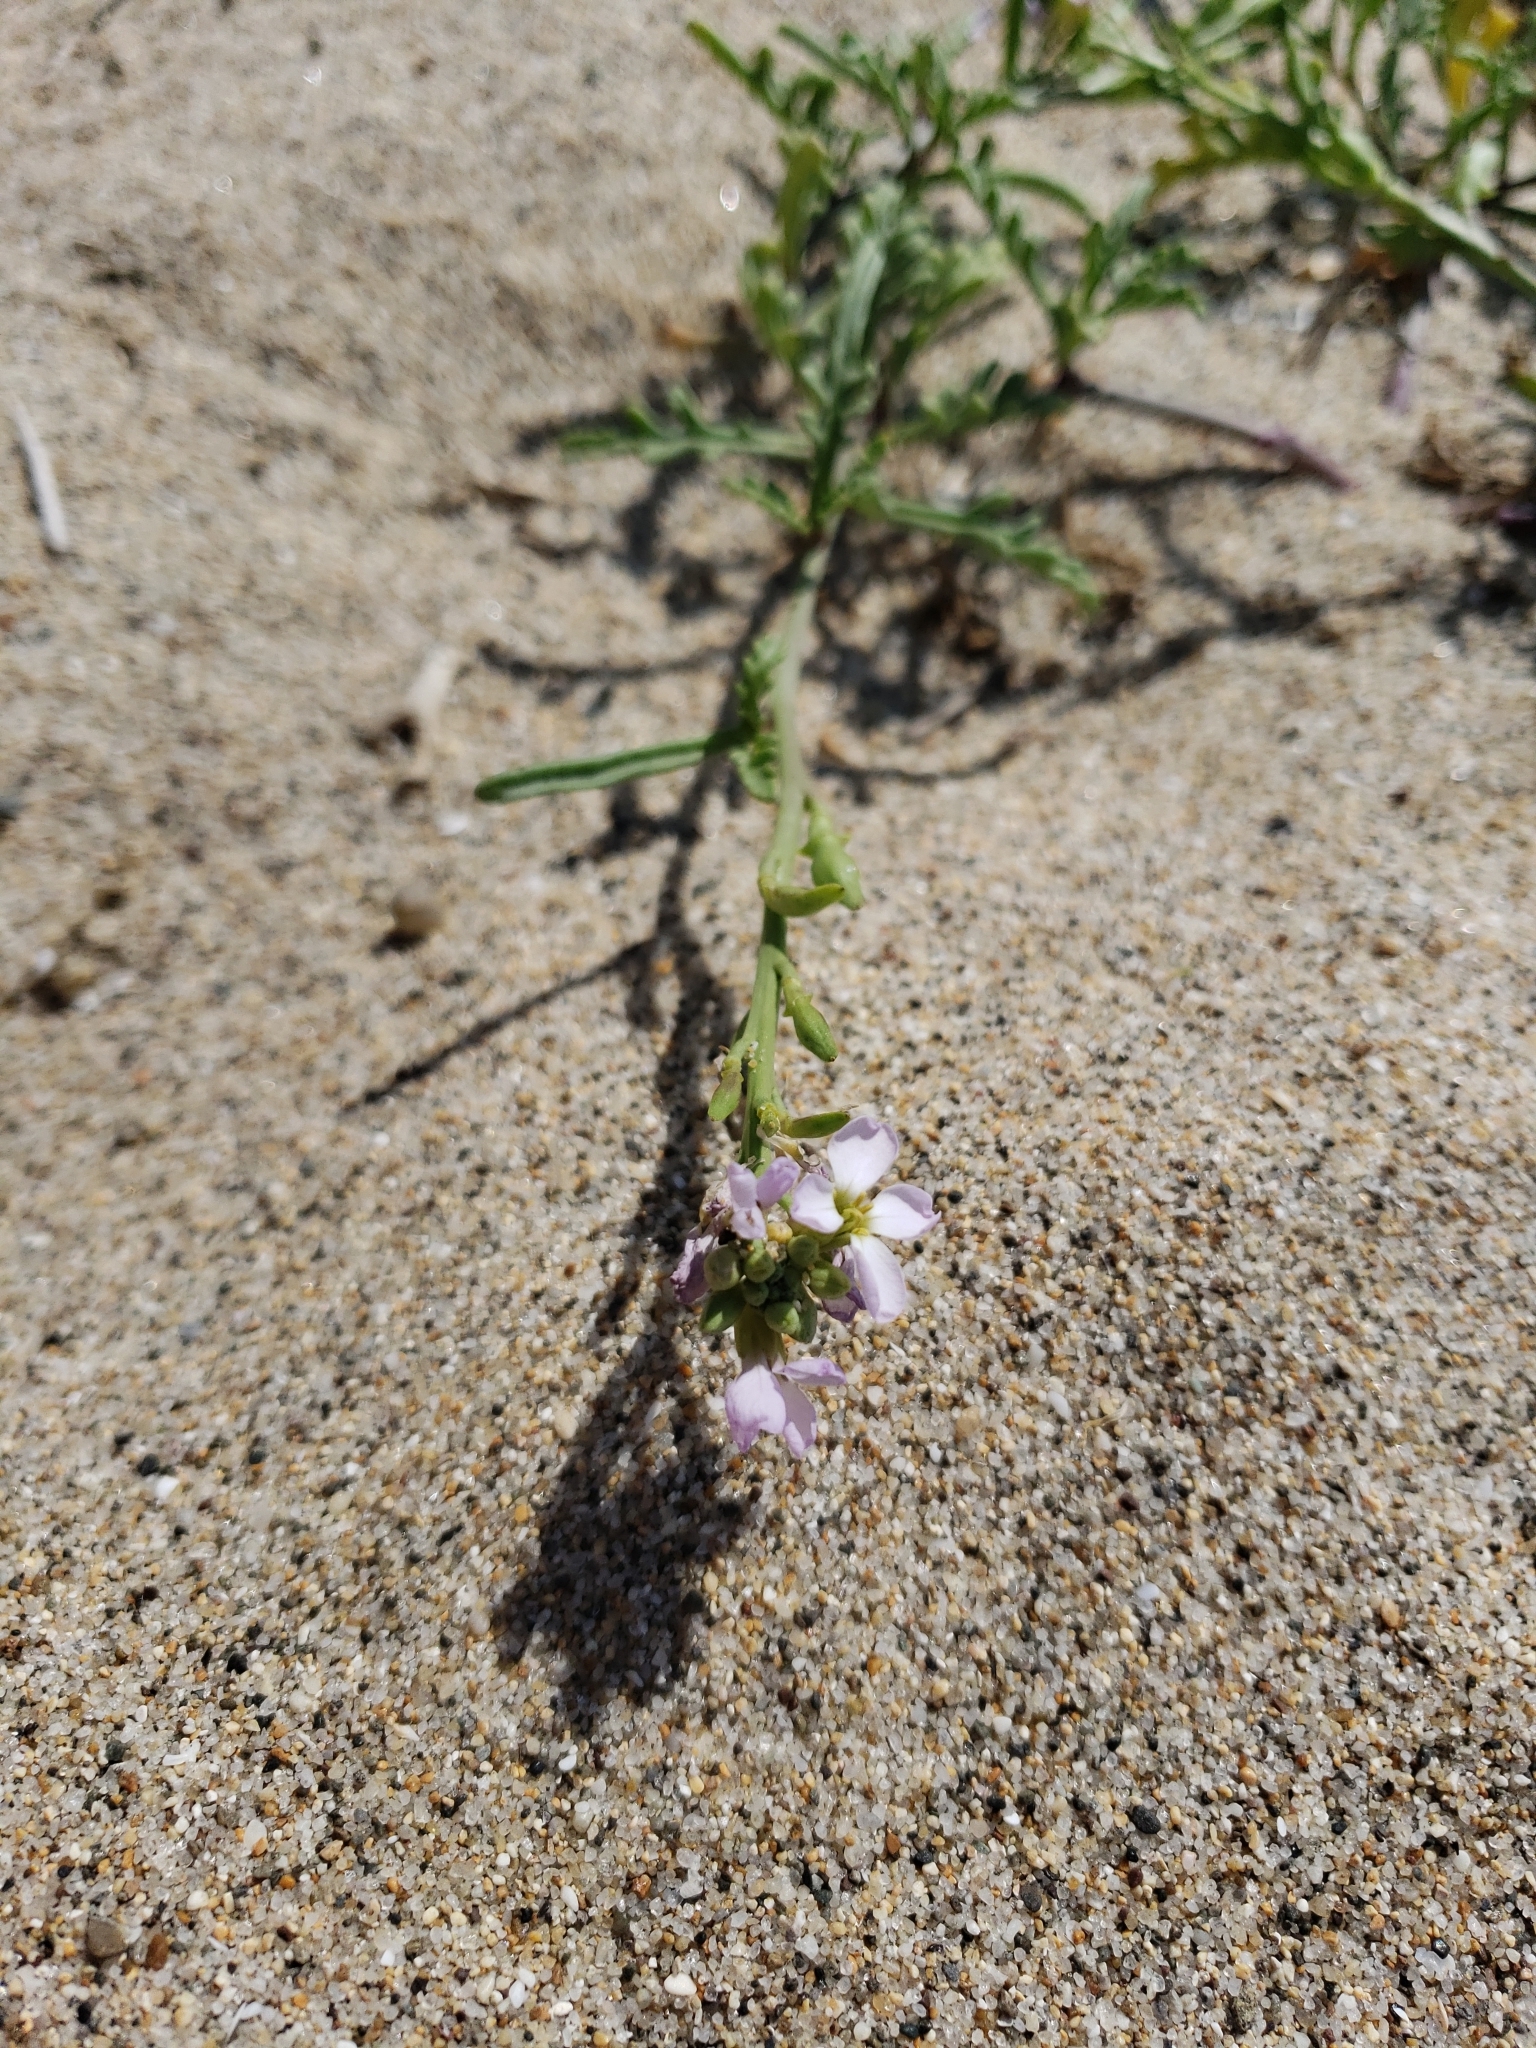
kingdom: Plantae
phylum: Tracheophyta
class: Magnoliopsida
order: Brassicales
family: Brassicaceae
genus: Cakile
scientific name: Cakile maritima
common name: Sea rocket
